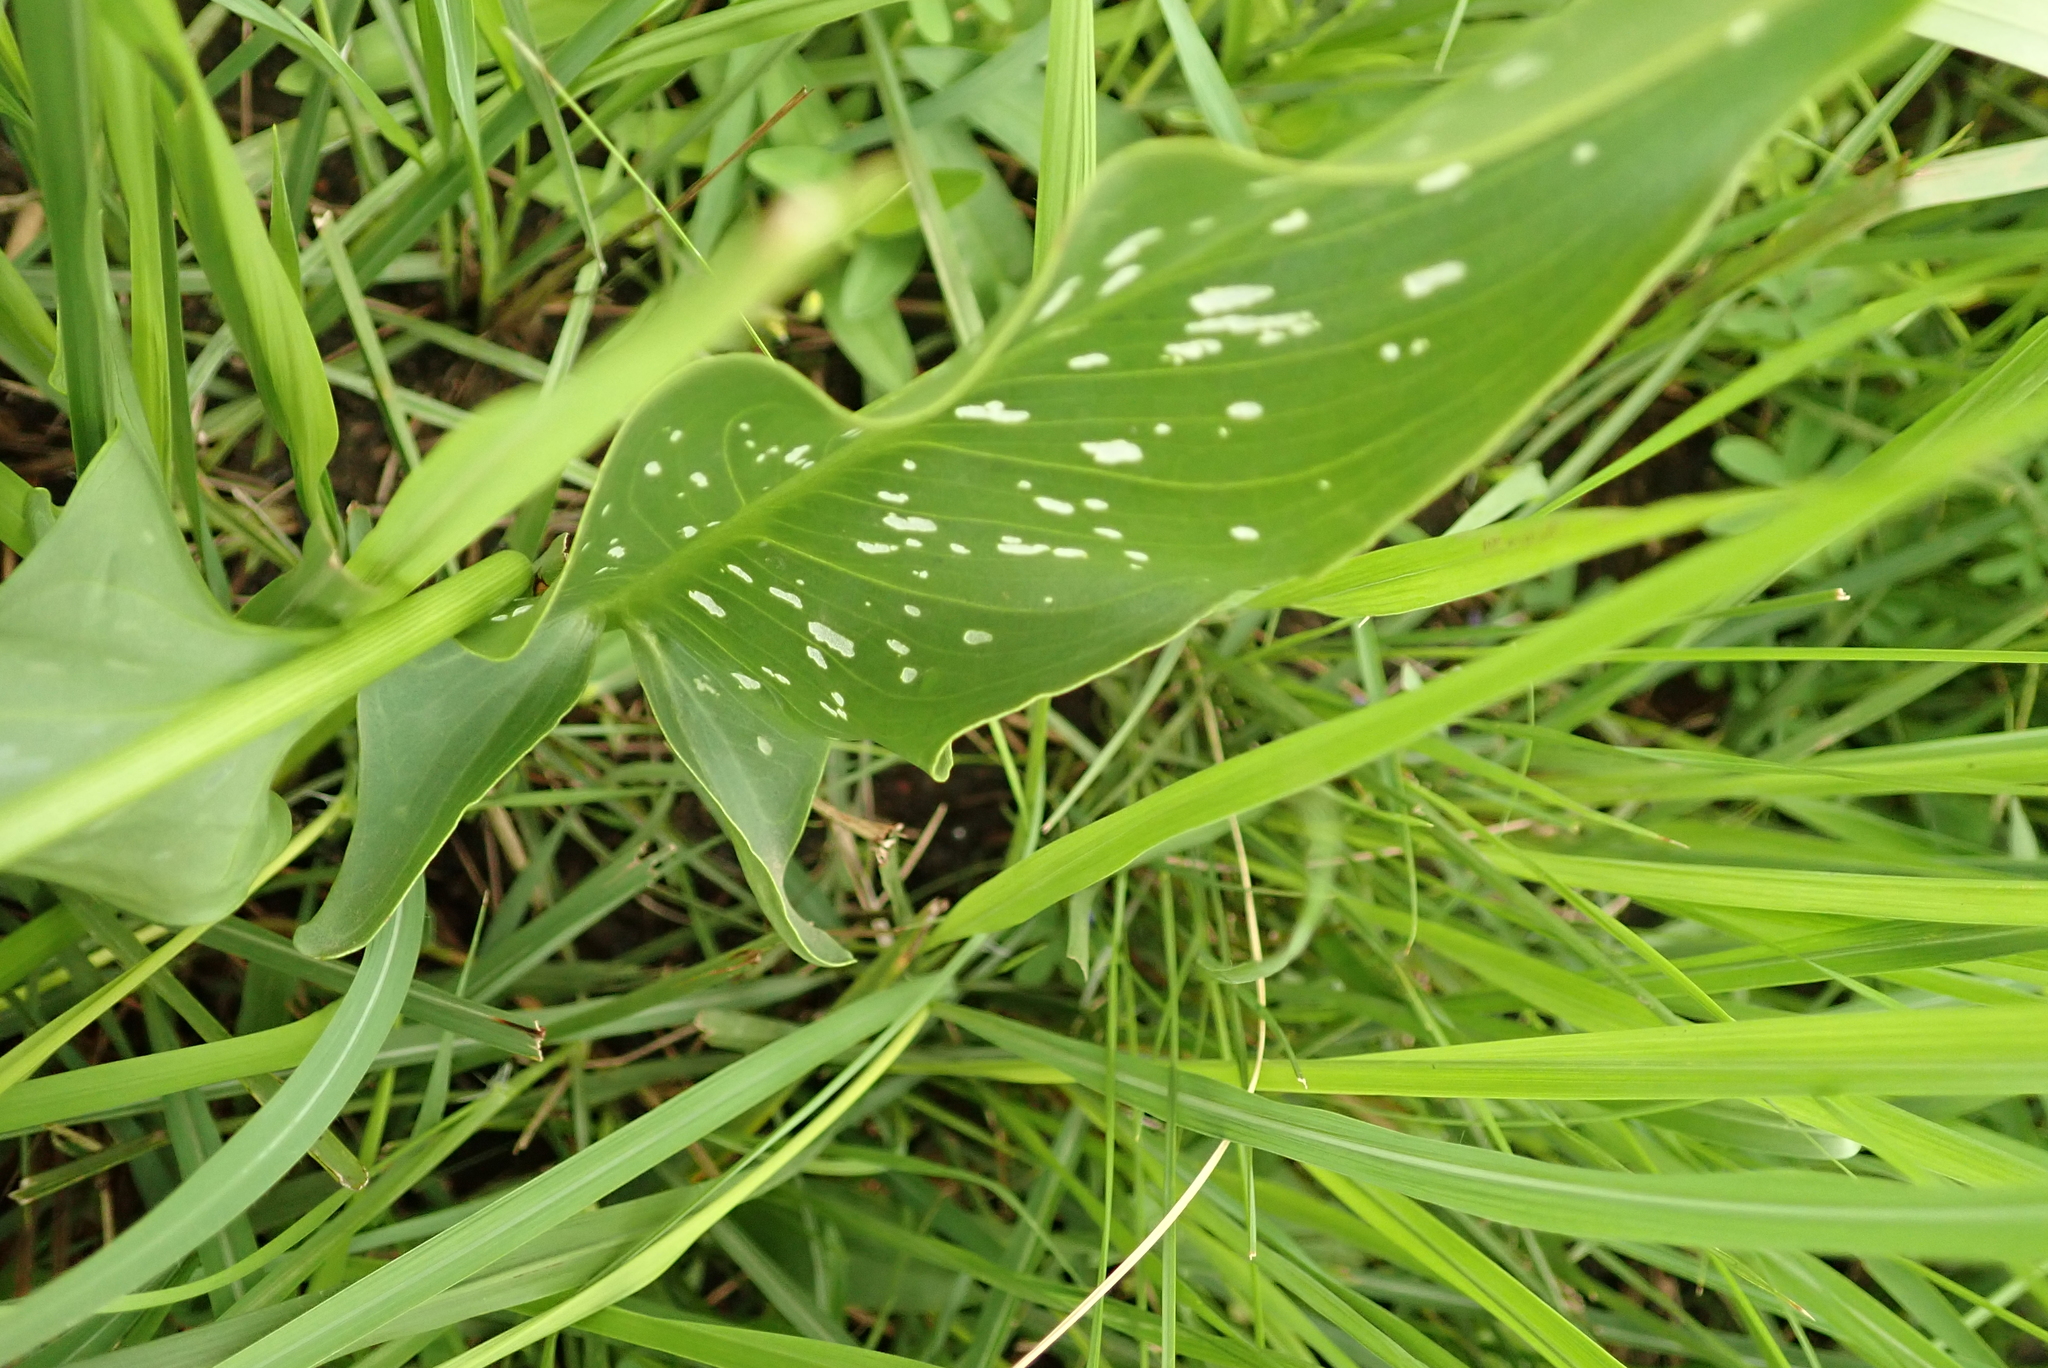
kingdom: Plantae
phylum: Tracheophyta
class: Liliopsida
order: Alismatales
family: Araceae
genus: Zantedeschia
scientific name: Zantedeschia albomaculata
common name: Spotted calla lily
